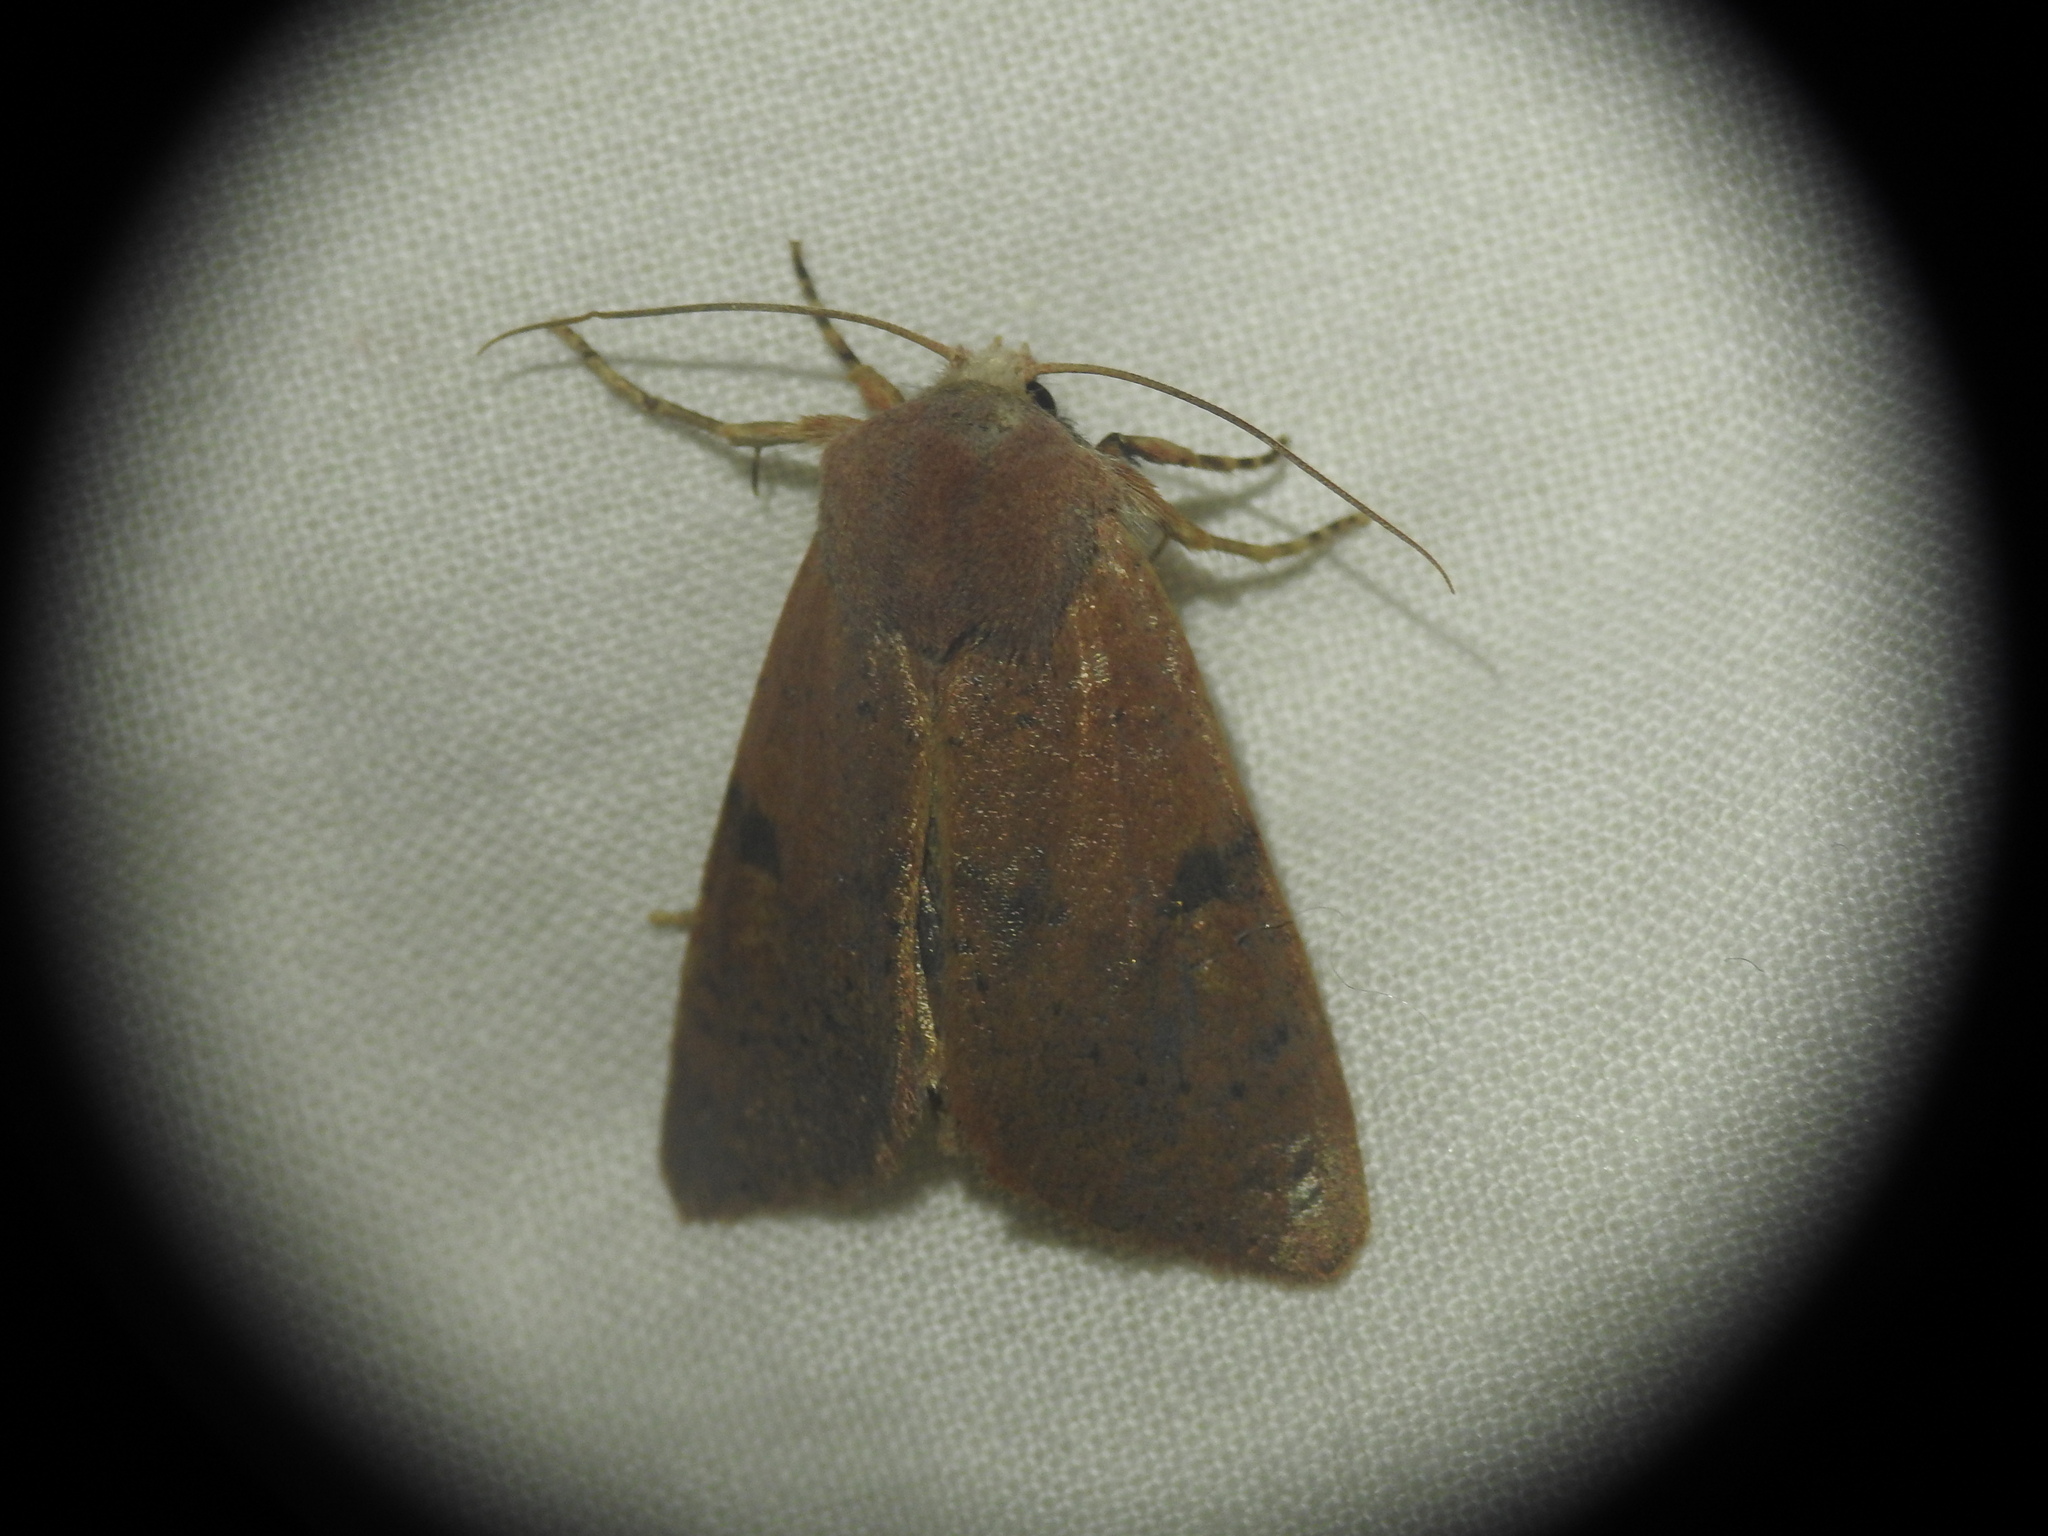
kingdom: Animalia
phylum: Arthropoda
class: Insecta
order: Lepidoptera
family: Noctuidae
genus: Ammopolia
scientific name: Ammopolia witzenmanni
